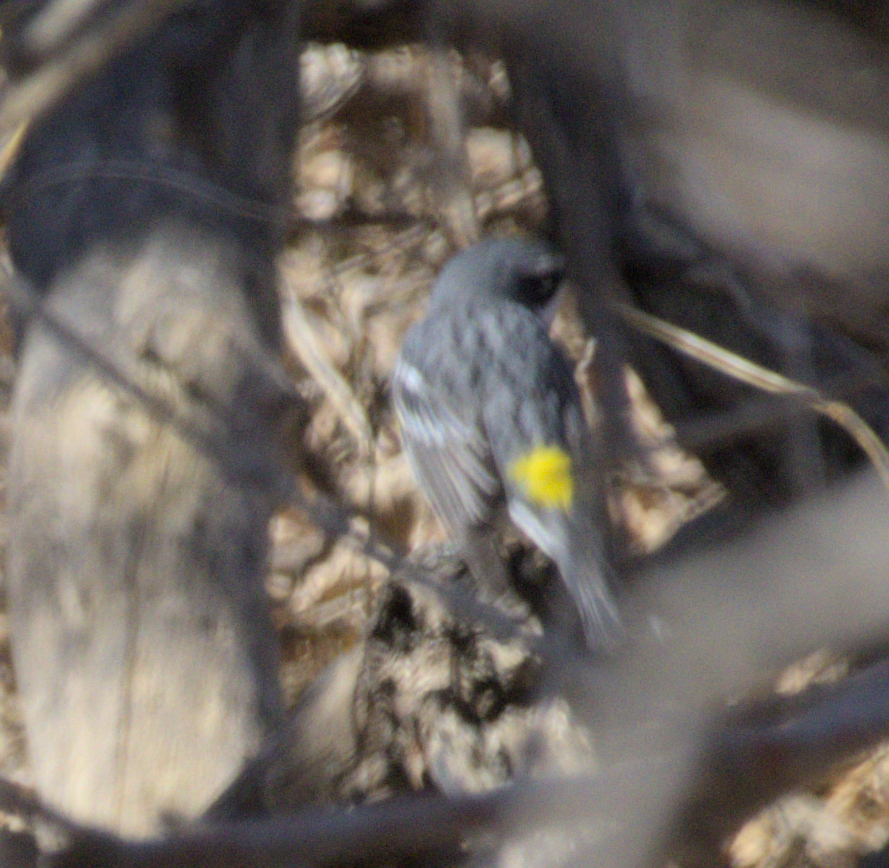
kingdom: Animalia
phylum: Chordata
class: Aves
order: Passeriformes
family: Parulidae
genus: Setophaga
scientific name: Setophaga coronata
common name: Myrtle warbler
